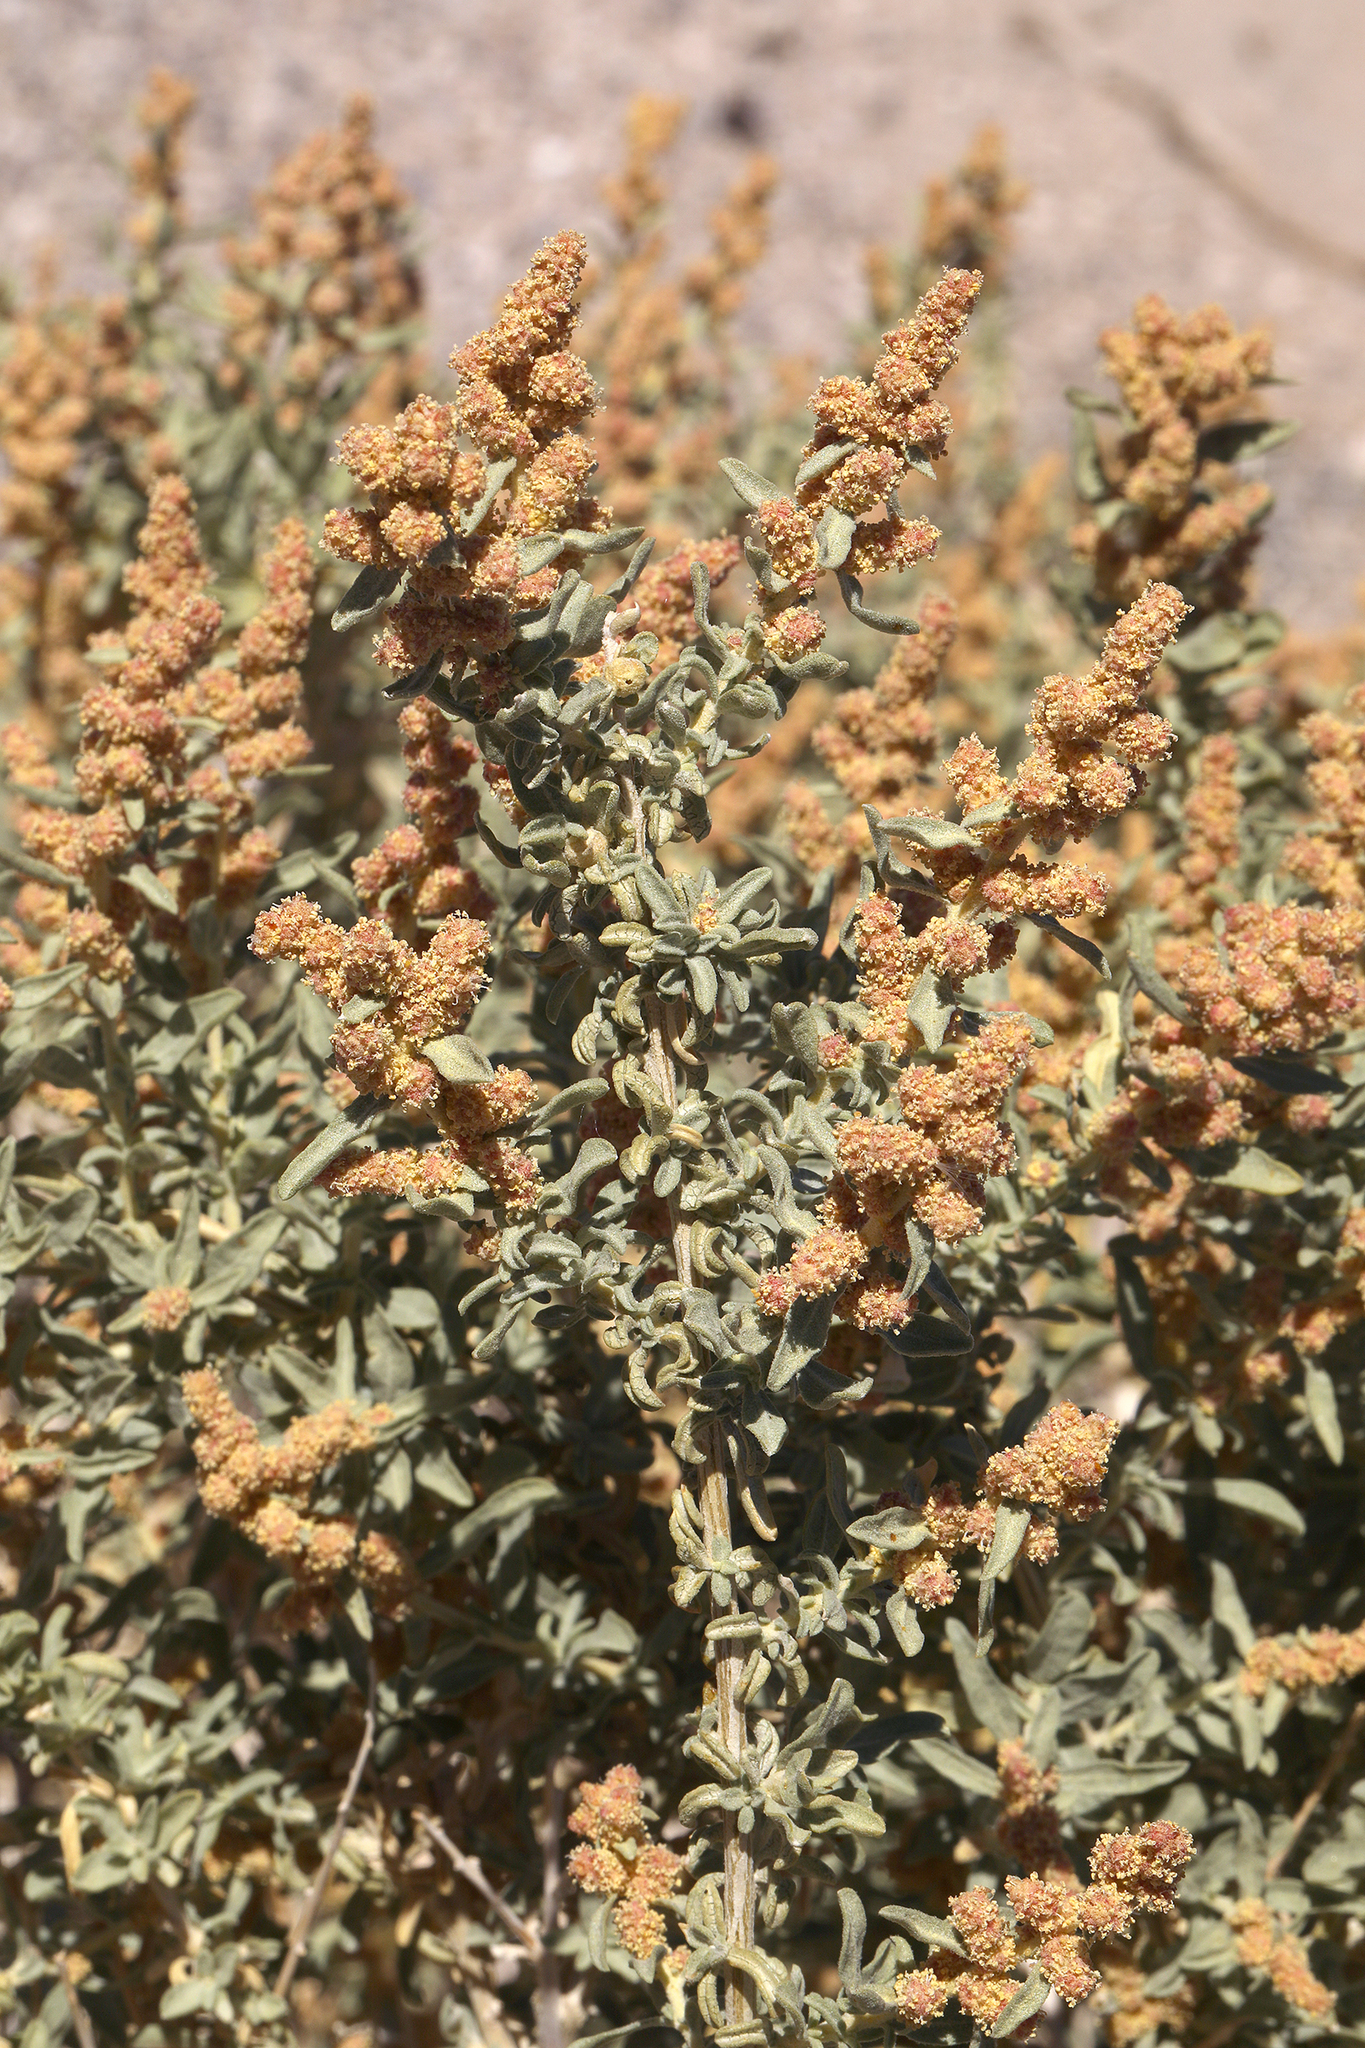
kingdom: Plantae
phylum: Tracheophyta
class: Magnoliopsida
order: Caryophyllales
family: Amaranthaceae
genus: Atriplex
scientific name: Atriplex canescens
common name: Four-wing saltbush
